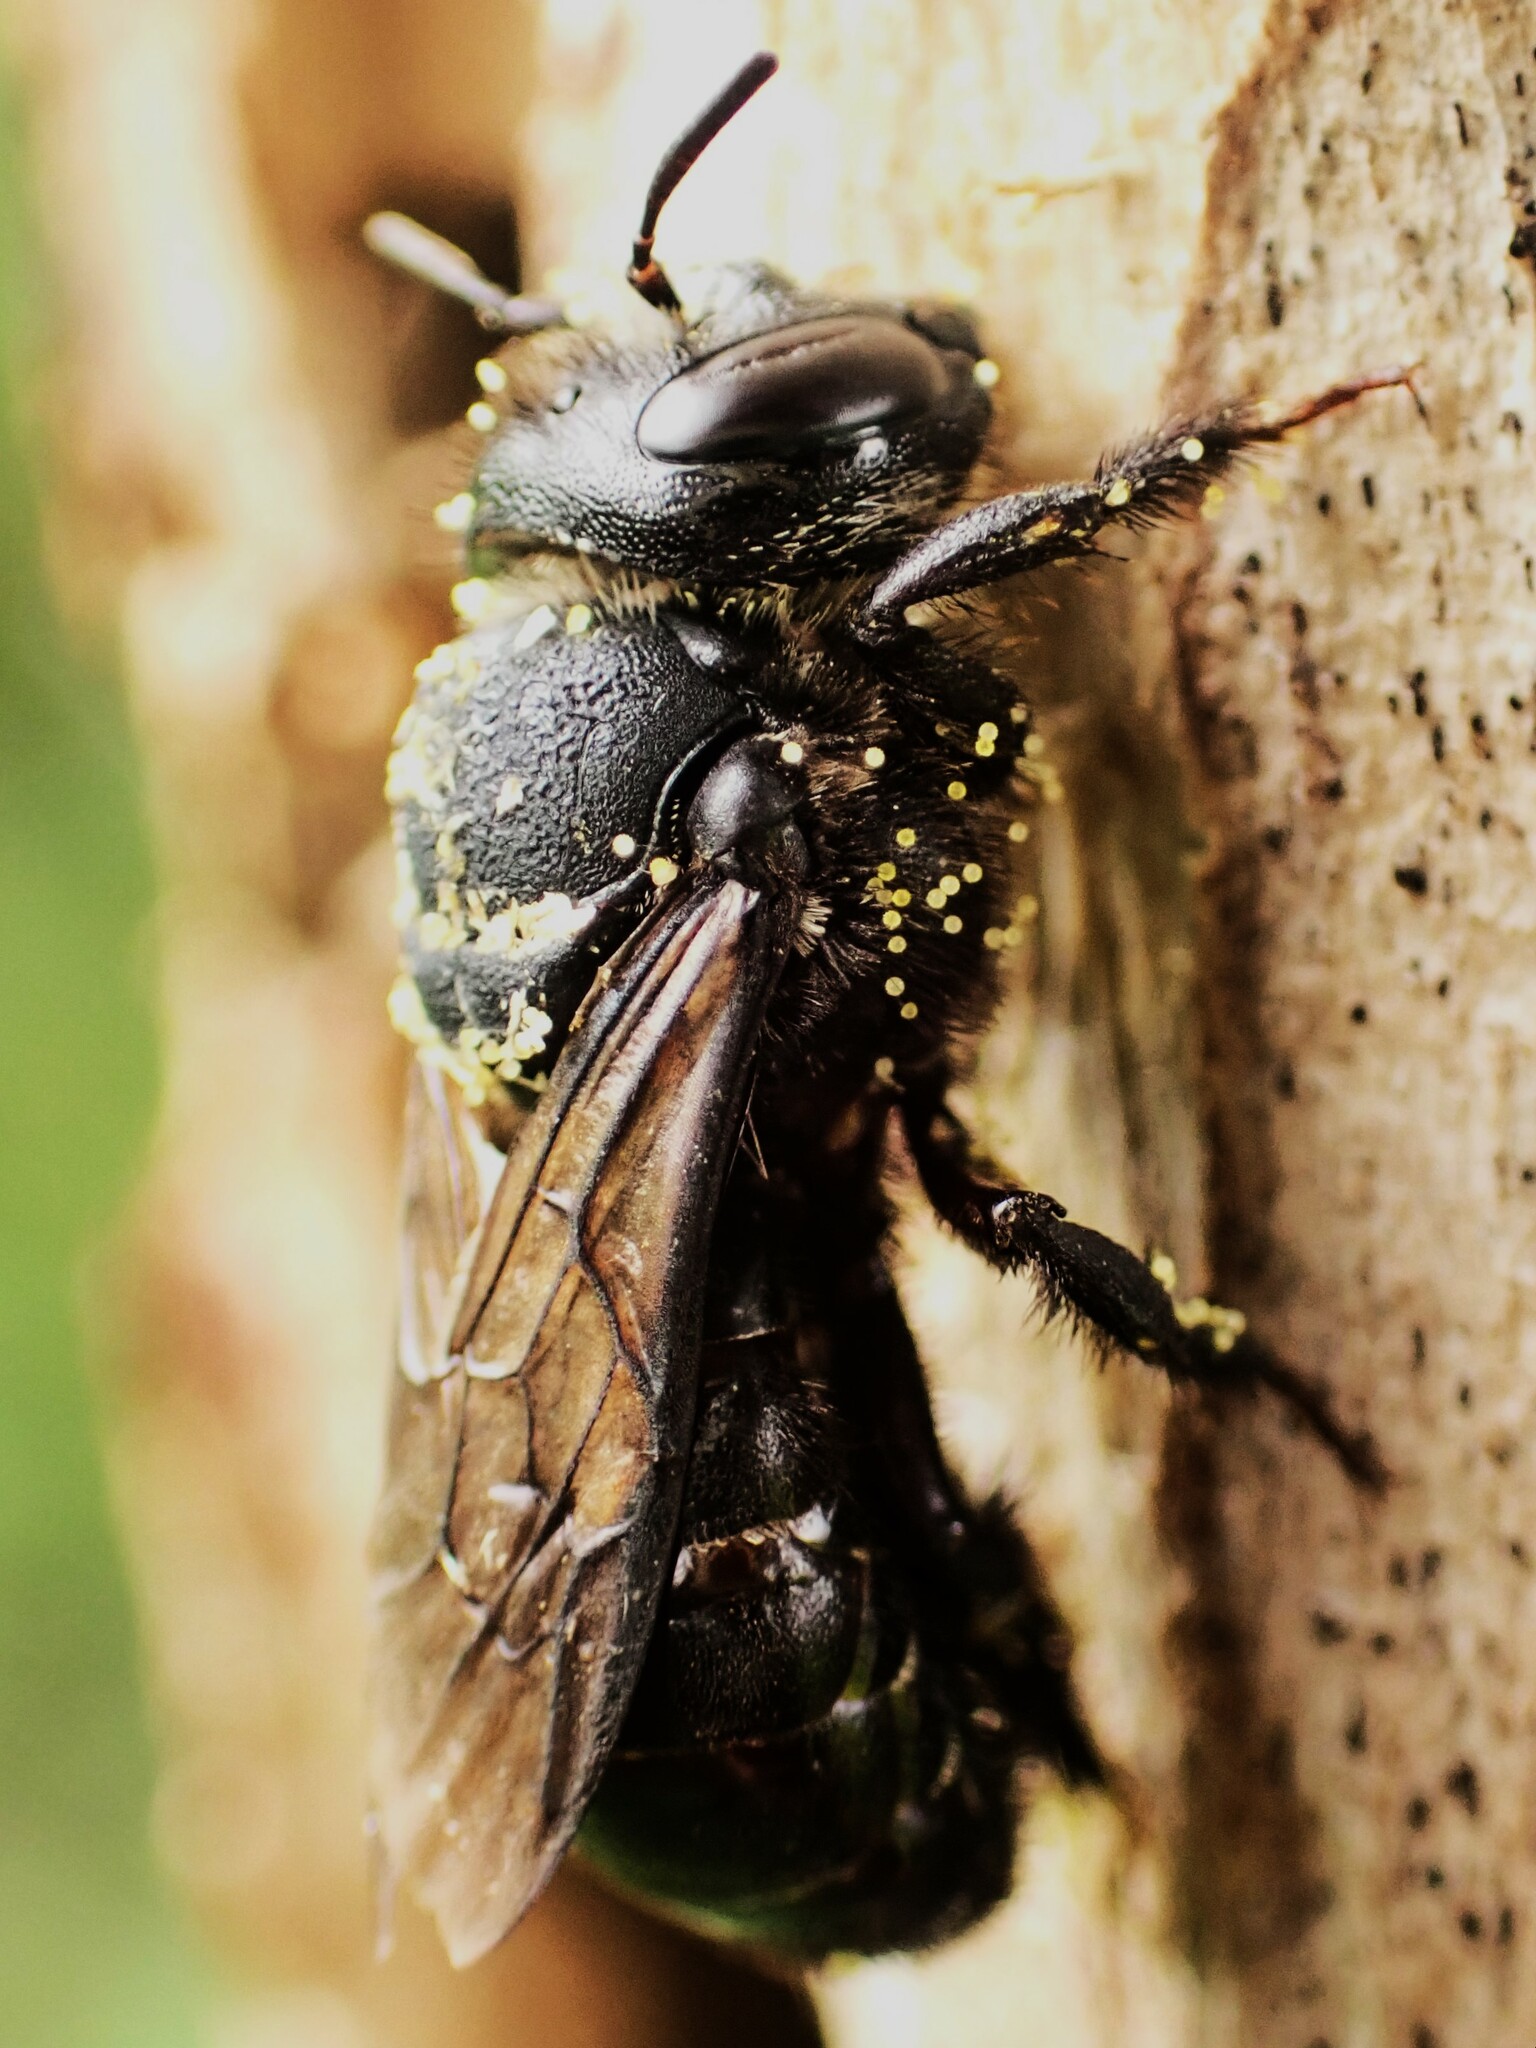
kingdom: Animalia
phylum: Arthropoda
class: Insecta
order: Hymenoptera
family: Megachilidae
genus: Lithurgus
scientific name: Lithurgus scabrosus
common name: Wood-nesting bee
